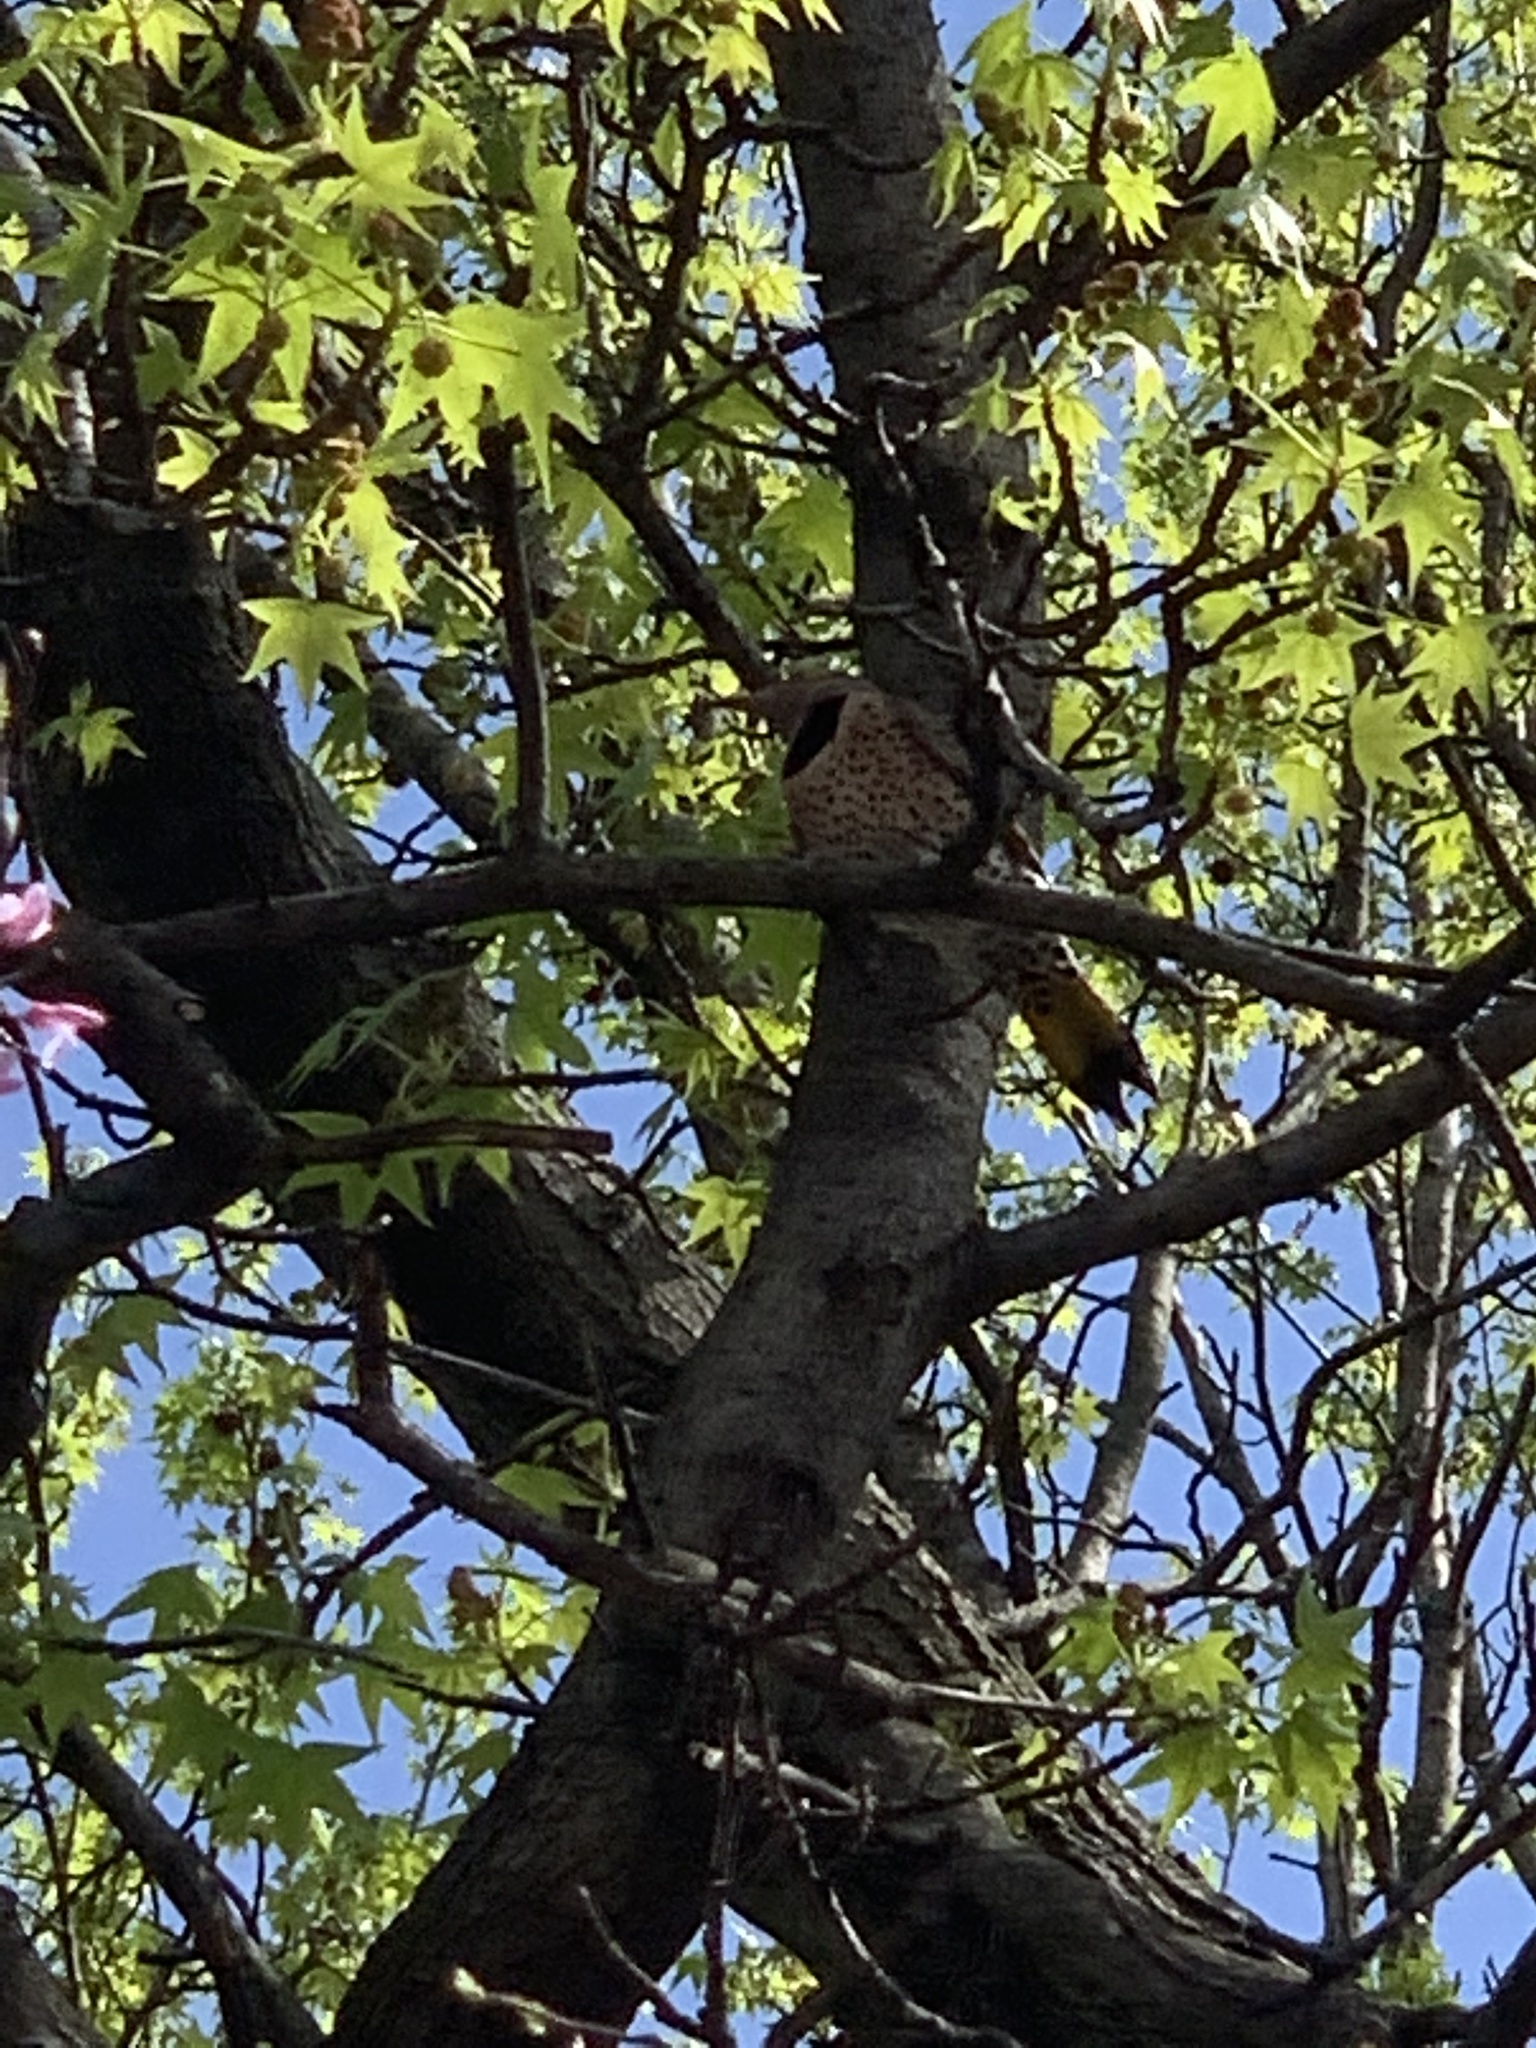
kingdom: Animalia
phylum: Chordata
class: Aves
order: Piciformes
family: Picidae
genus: Colaptes
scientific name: Colaptes auratus
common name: Northern flicker
